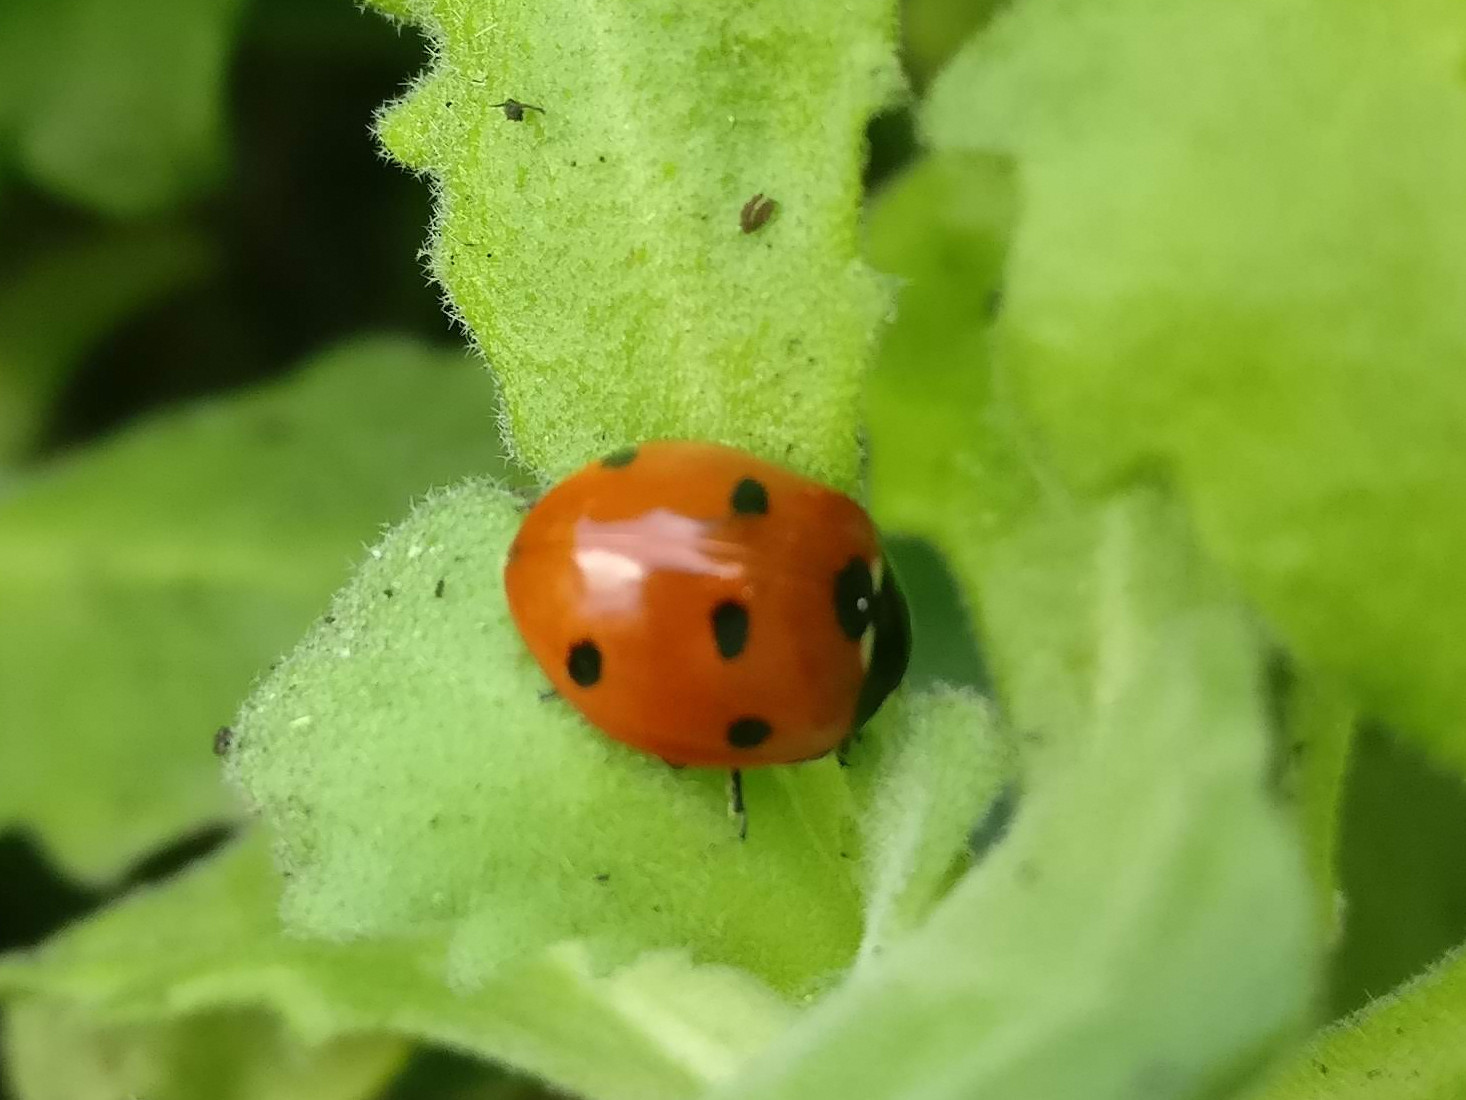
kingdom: Animalia
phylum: Arthropoda
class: Insecta
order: Coleoptera
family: Coccinellidae
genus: Coccinella
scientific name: Coccinella septempunctata
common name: Sevenspotted lady beetle
